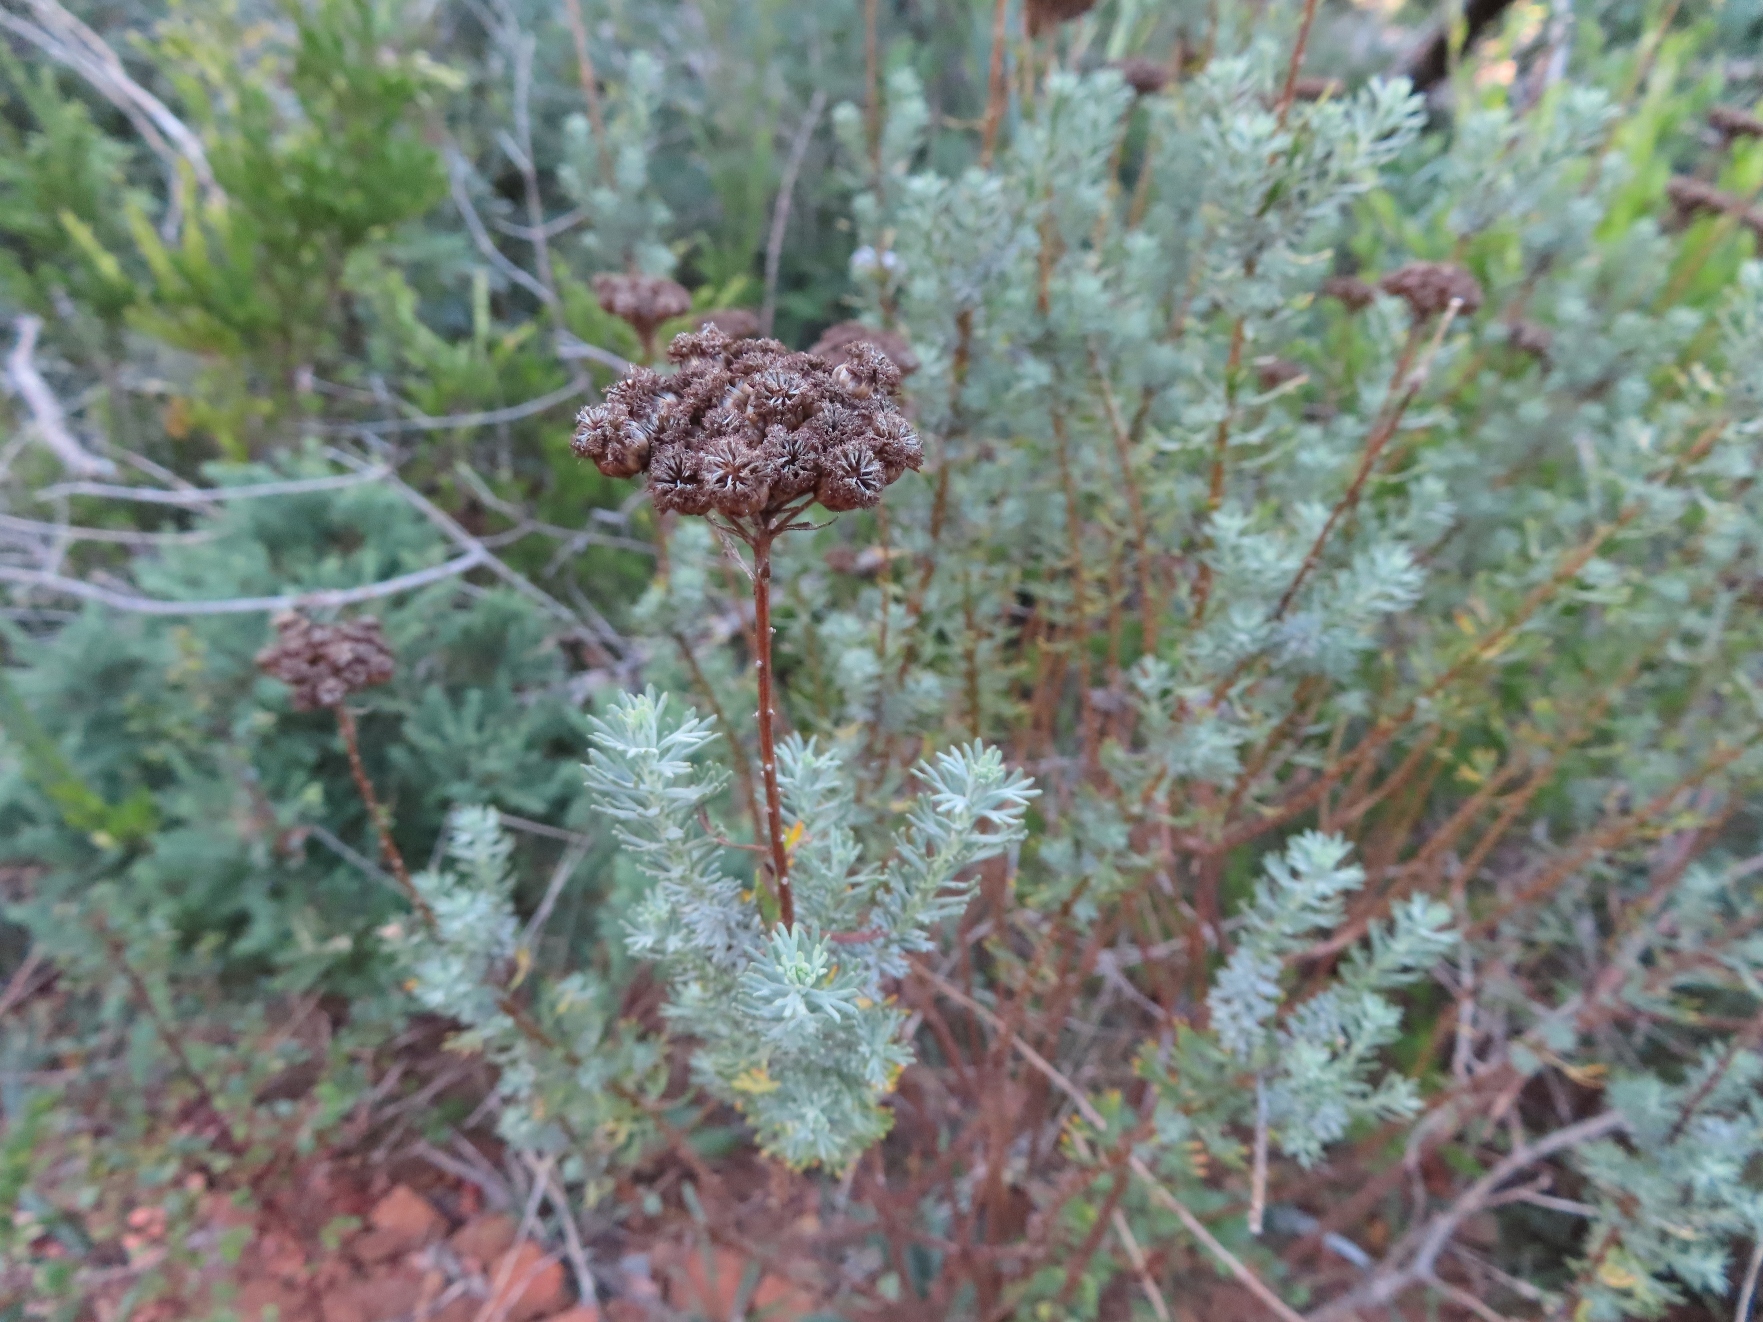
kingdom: Plantae
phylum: Tracheophyta
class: Magnoliopsida
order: Asterales
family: Asteraceae
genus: Athanasia
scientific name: Athanasia trifurcata
